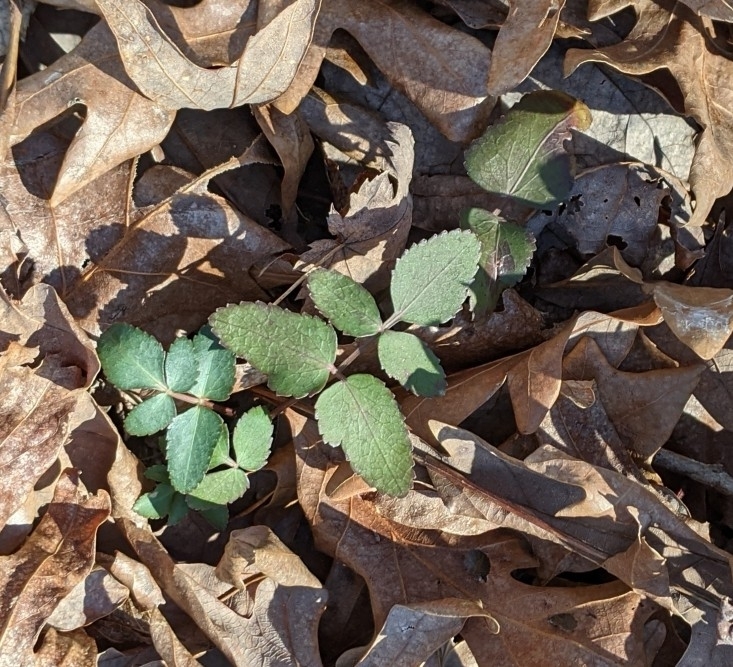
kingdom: Plantae
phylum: Tracheophyta
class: Magnoliopsida
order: Apiales
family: Apiaceae
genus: Zizia
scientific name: Zizia aurea
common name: Golden alexanders
